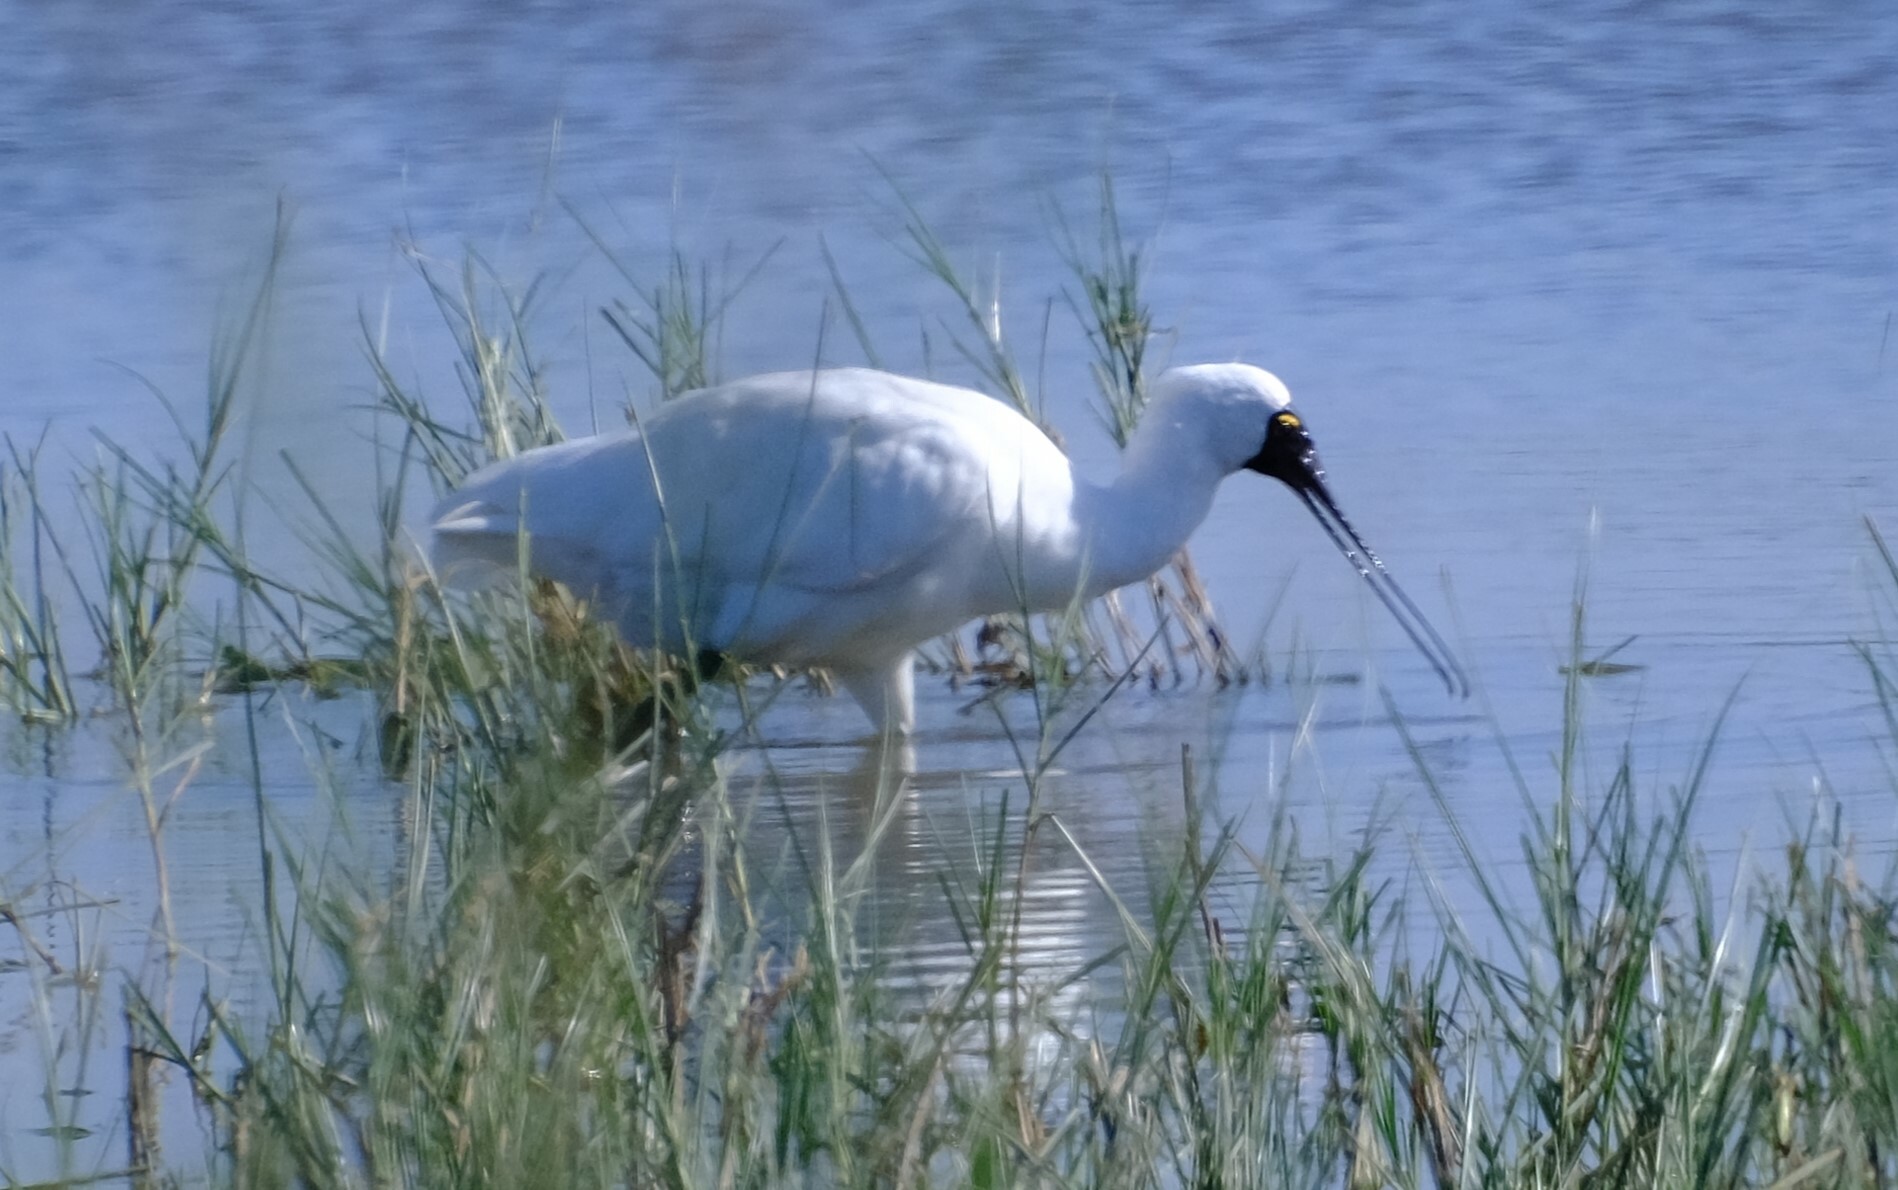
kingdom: Animalia
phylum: Chordata
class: Aves
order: Pelecaniformes
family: Threskiornithidae
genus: Platalea
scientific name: Platalea regia
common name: Royal spoonbill
